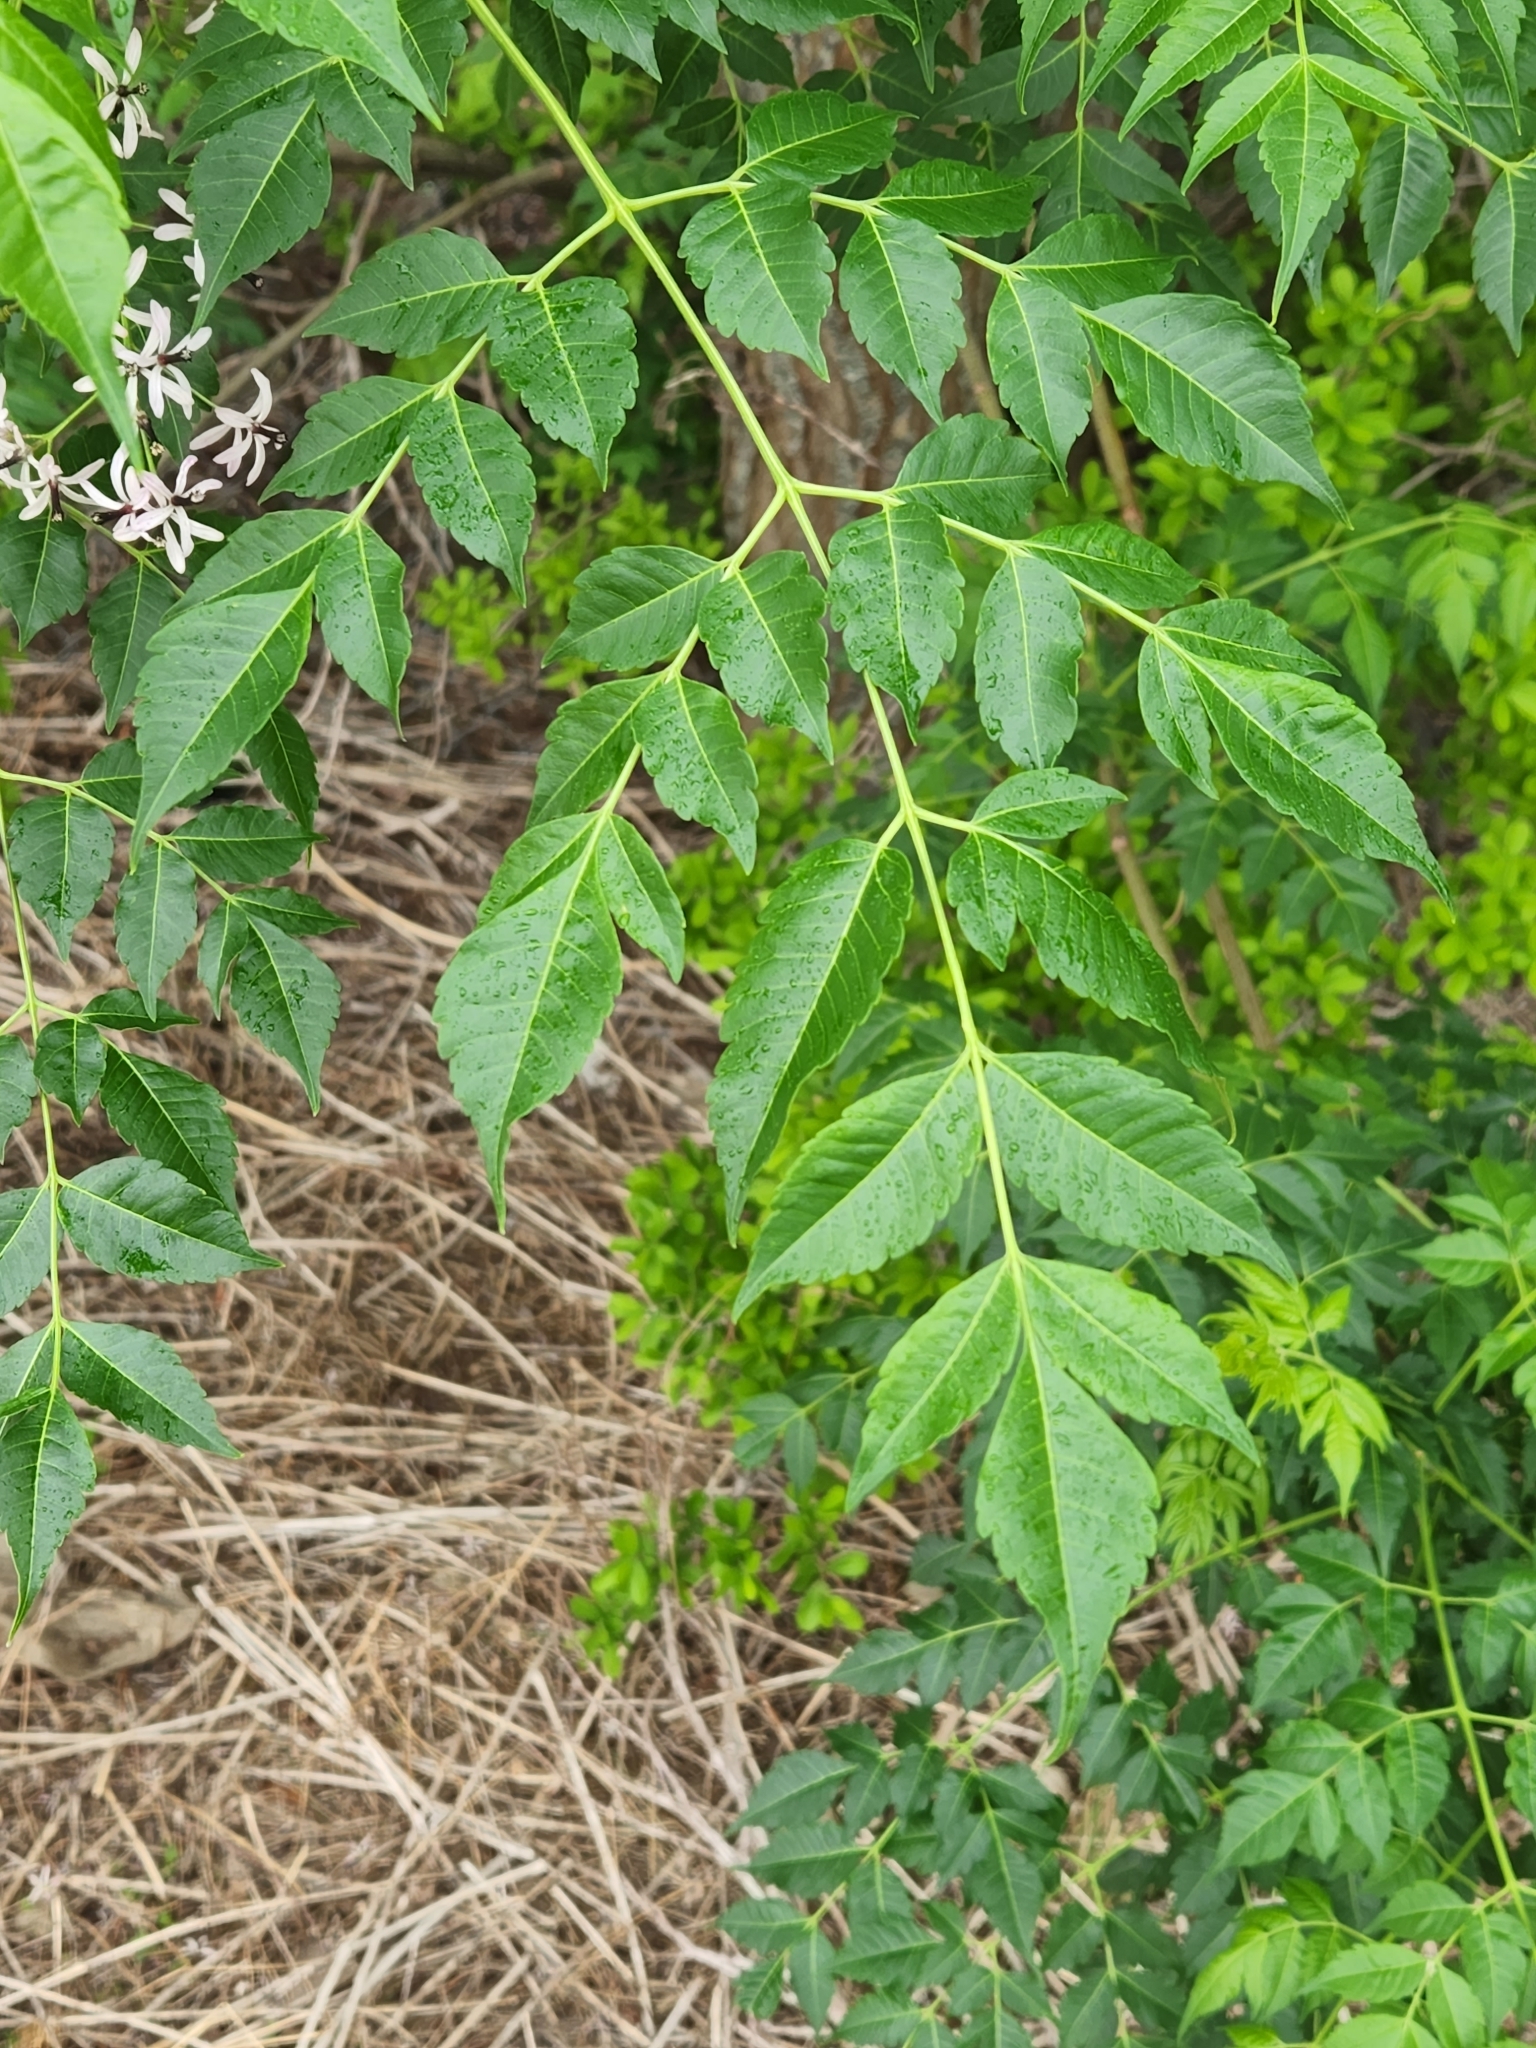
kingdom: Plantae
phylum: Tracheophyta
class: Magnoliopsida
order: Sapindales
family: Meliaceae
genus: Melia
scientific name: Melia azedarach
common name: Chinaberrytree
